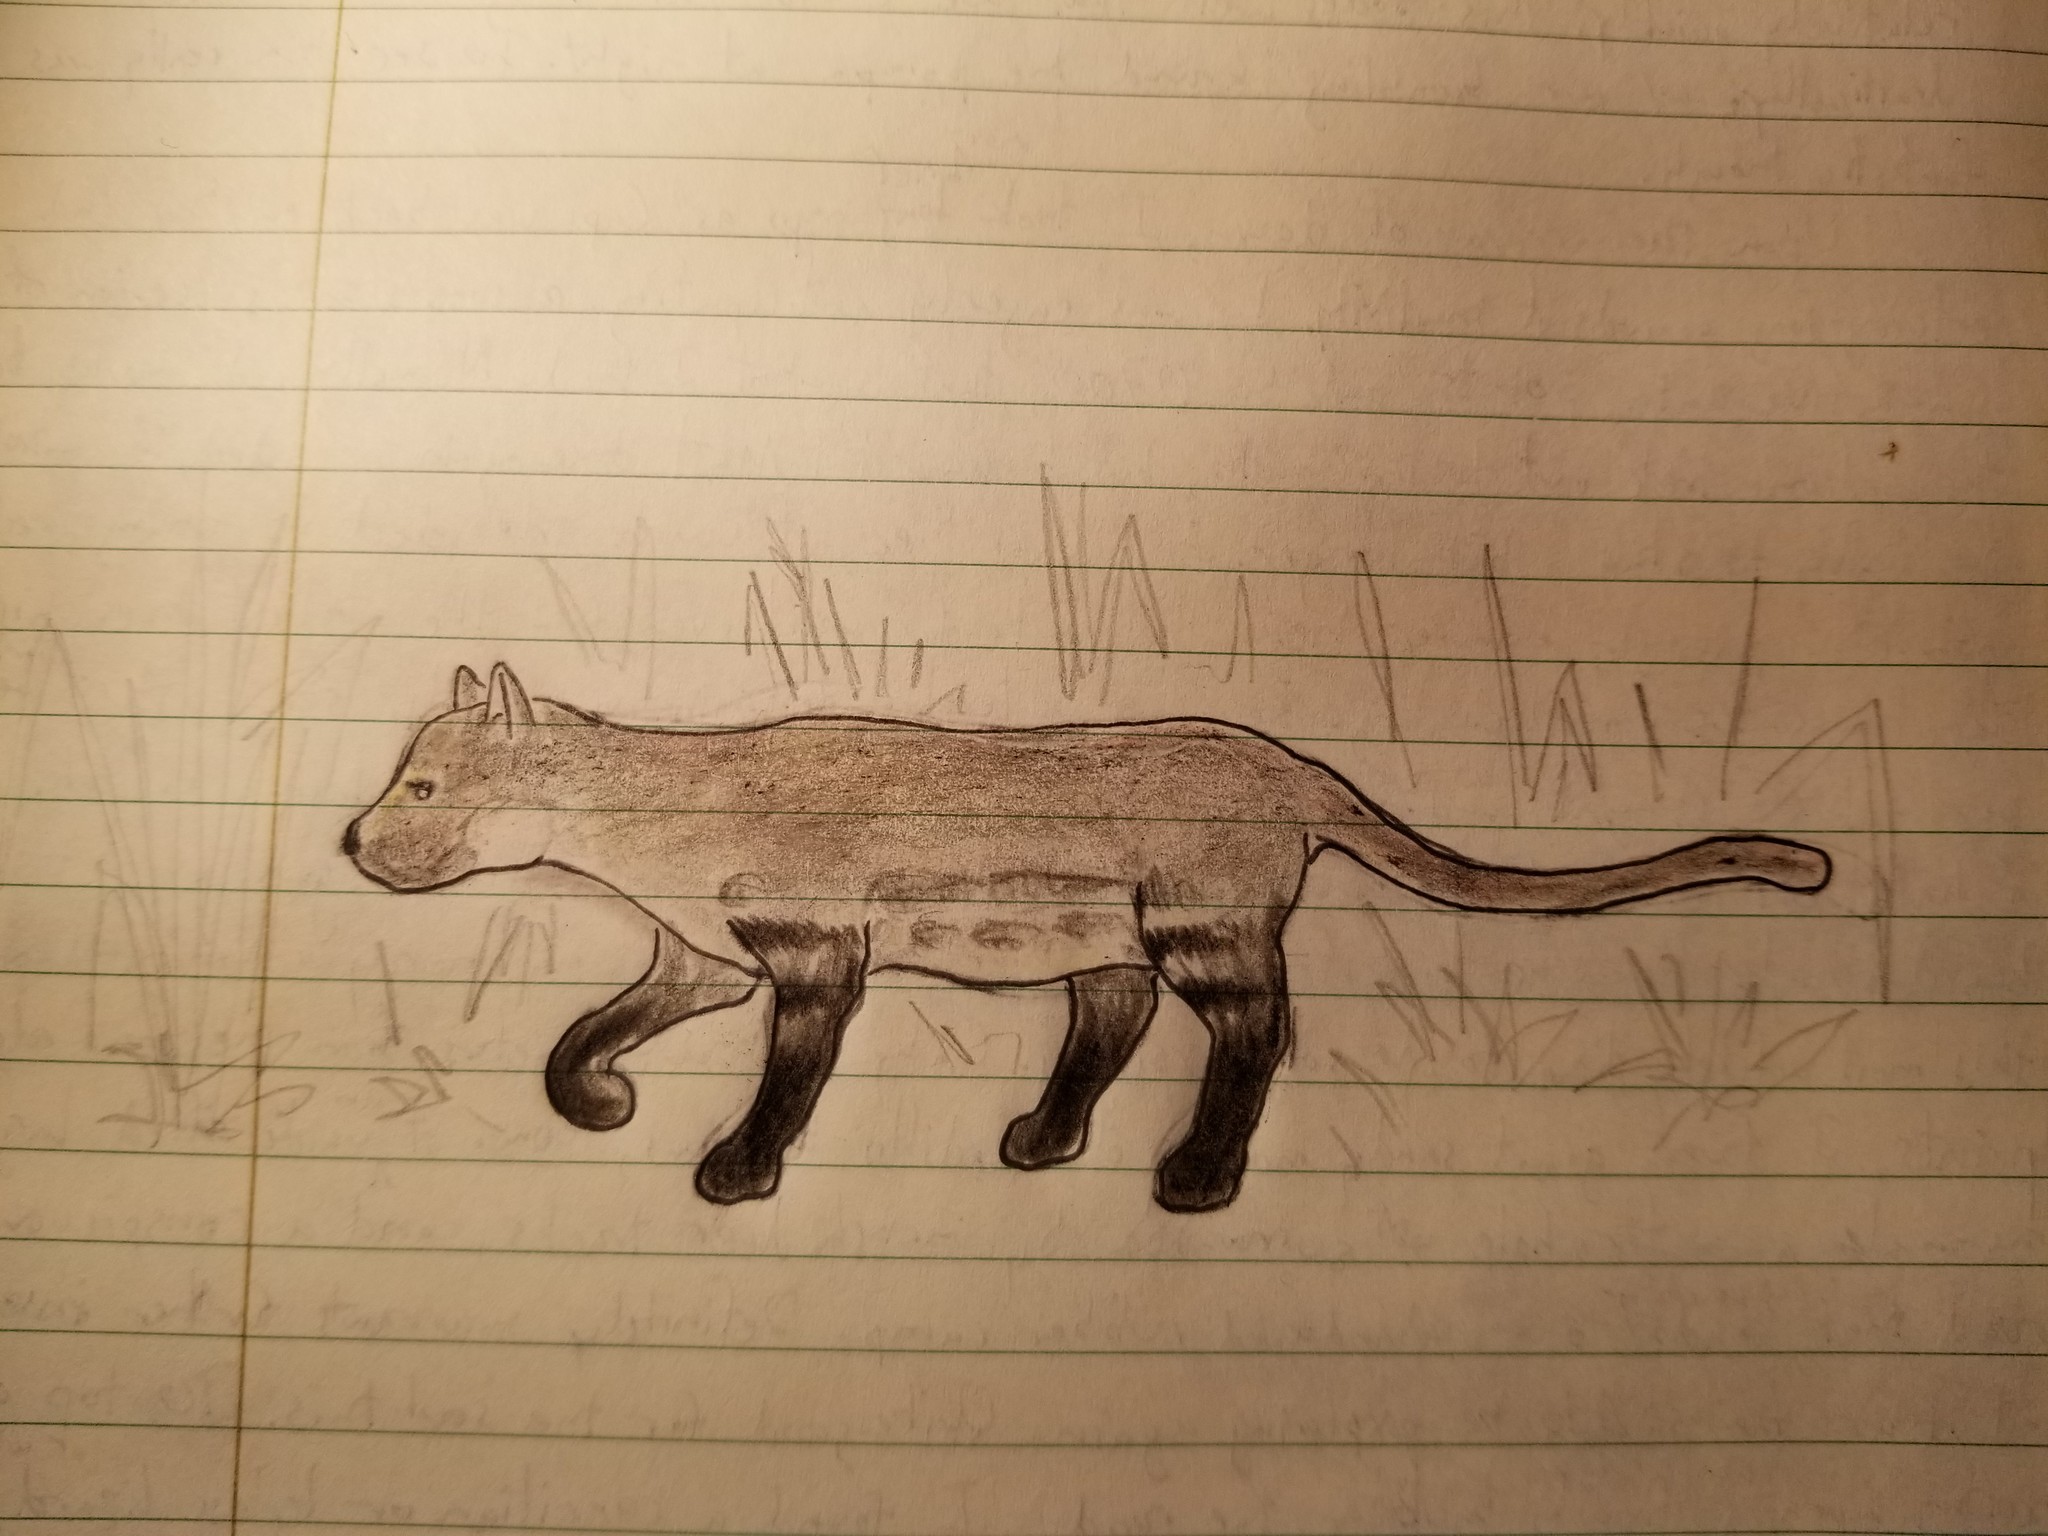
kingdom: Animalia
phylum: Chordata
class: Mammalia
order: Carnivora
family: Felidae
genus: Leopardus
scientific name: Leopardus braccatus
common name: Pantanal cat
